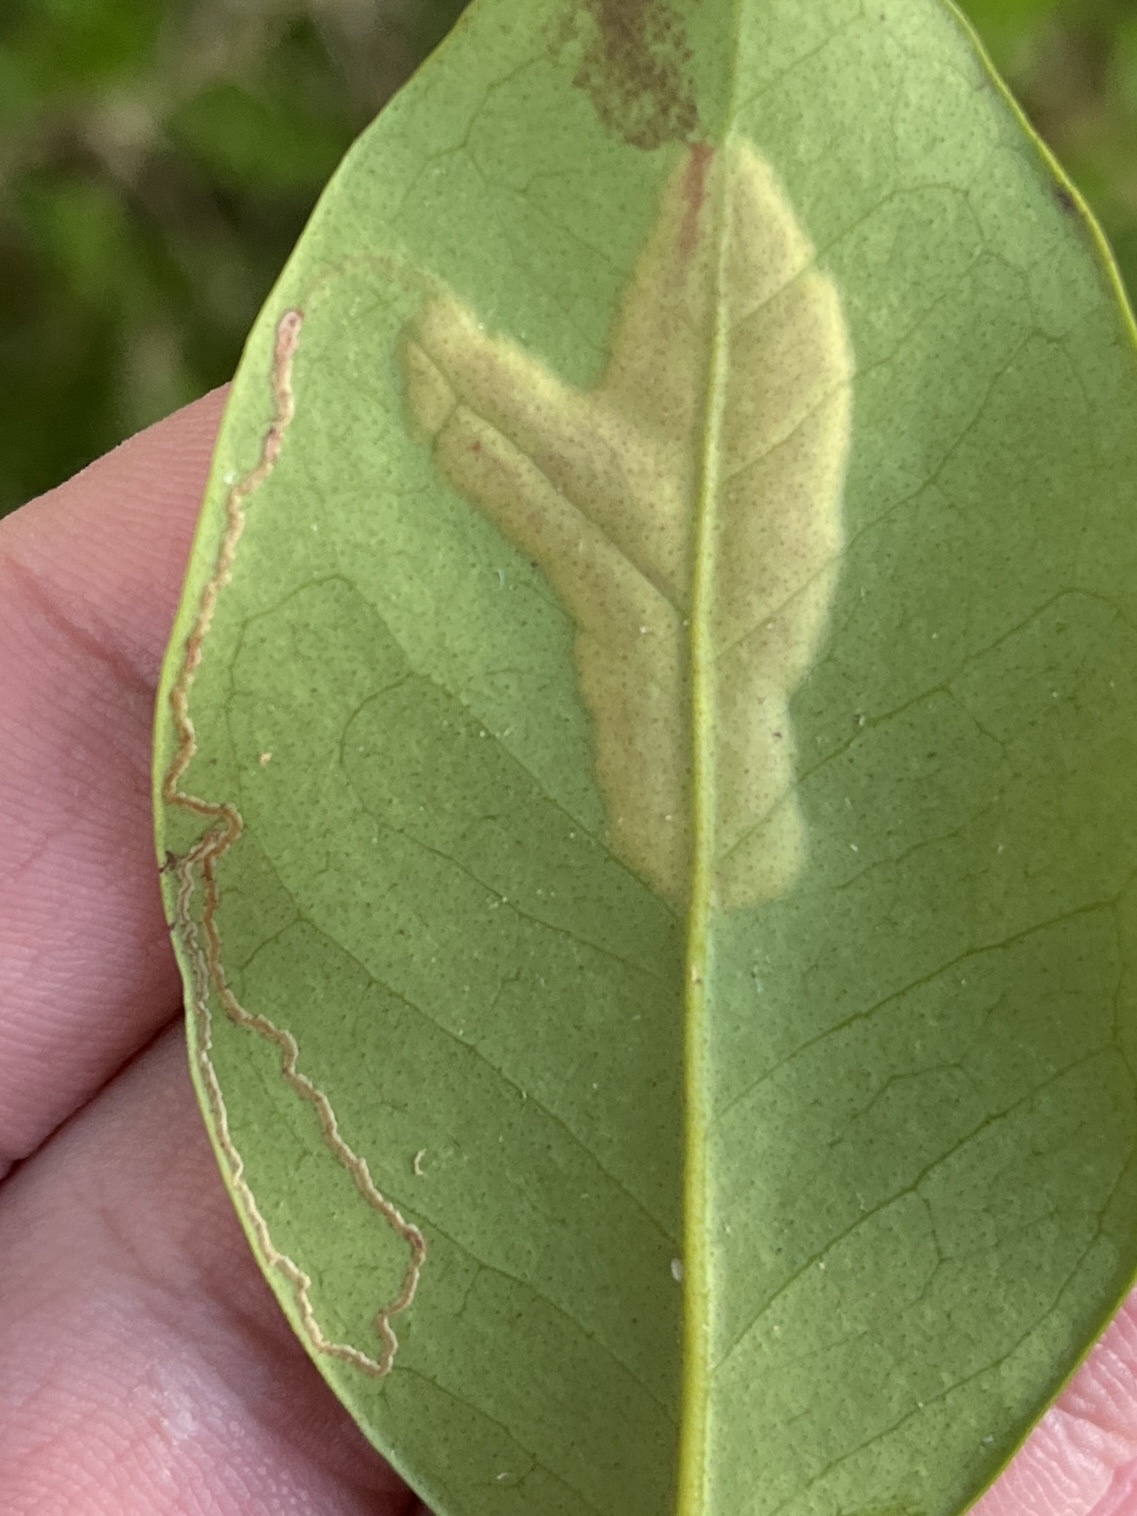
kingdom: Animalia
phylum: Arthropoda
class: Insecta
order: Lepidoptera
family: Gracillariidae
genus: Chilocampyla
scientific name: Chilocampyla dyariella
